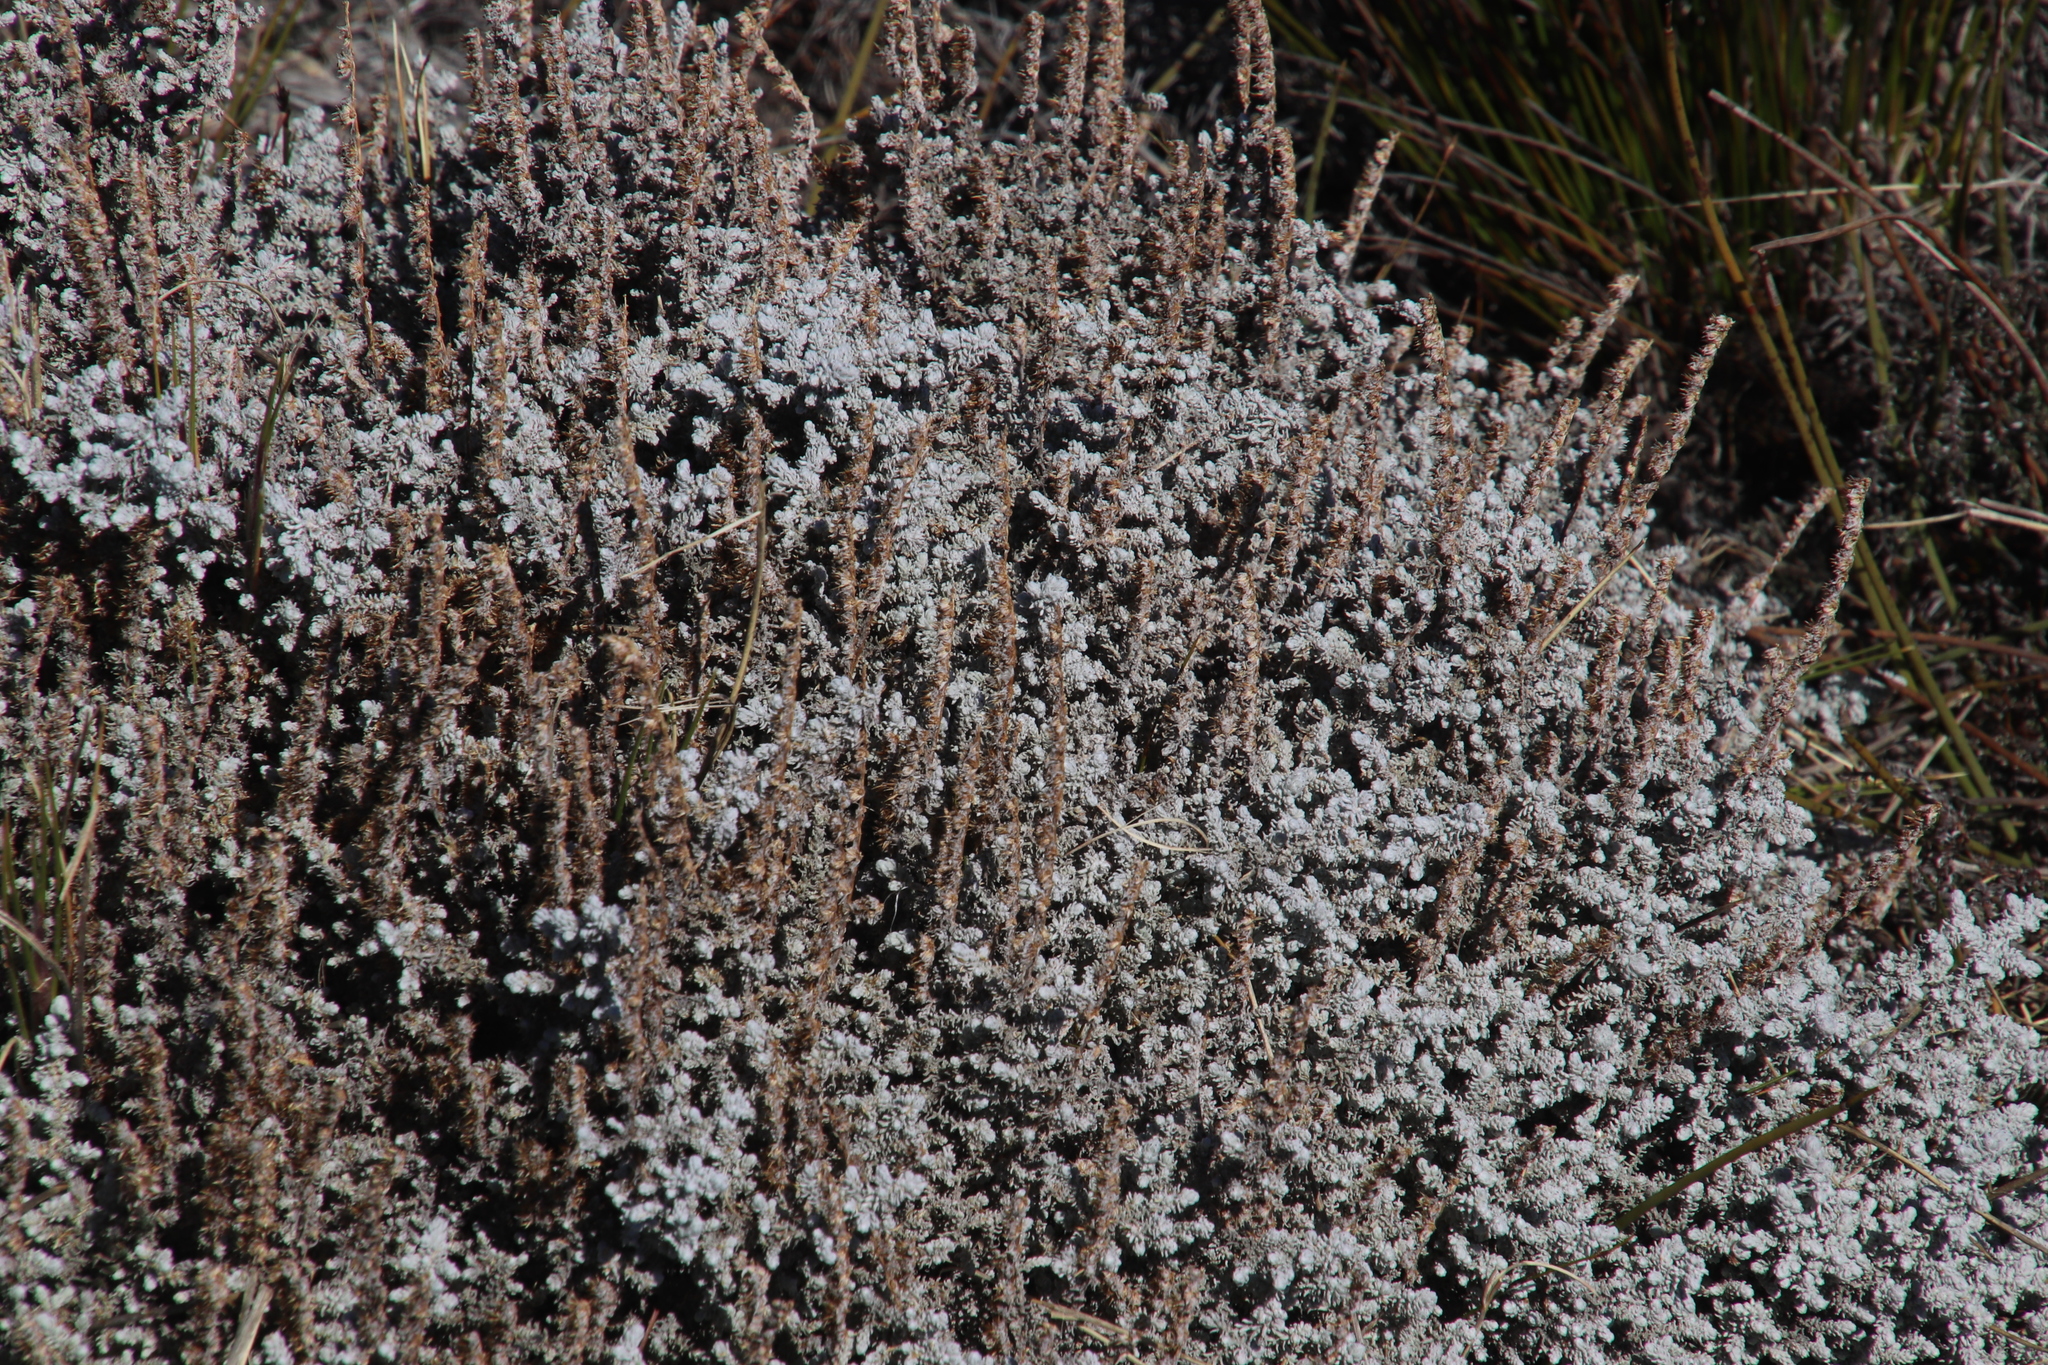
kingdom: Plantae
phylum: Tracheophyta
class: Magnoliopsida
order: Asterales
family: Asteraceae
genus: Seriphium
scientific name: Seriphium plumosum
